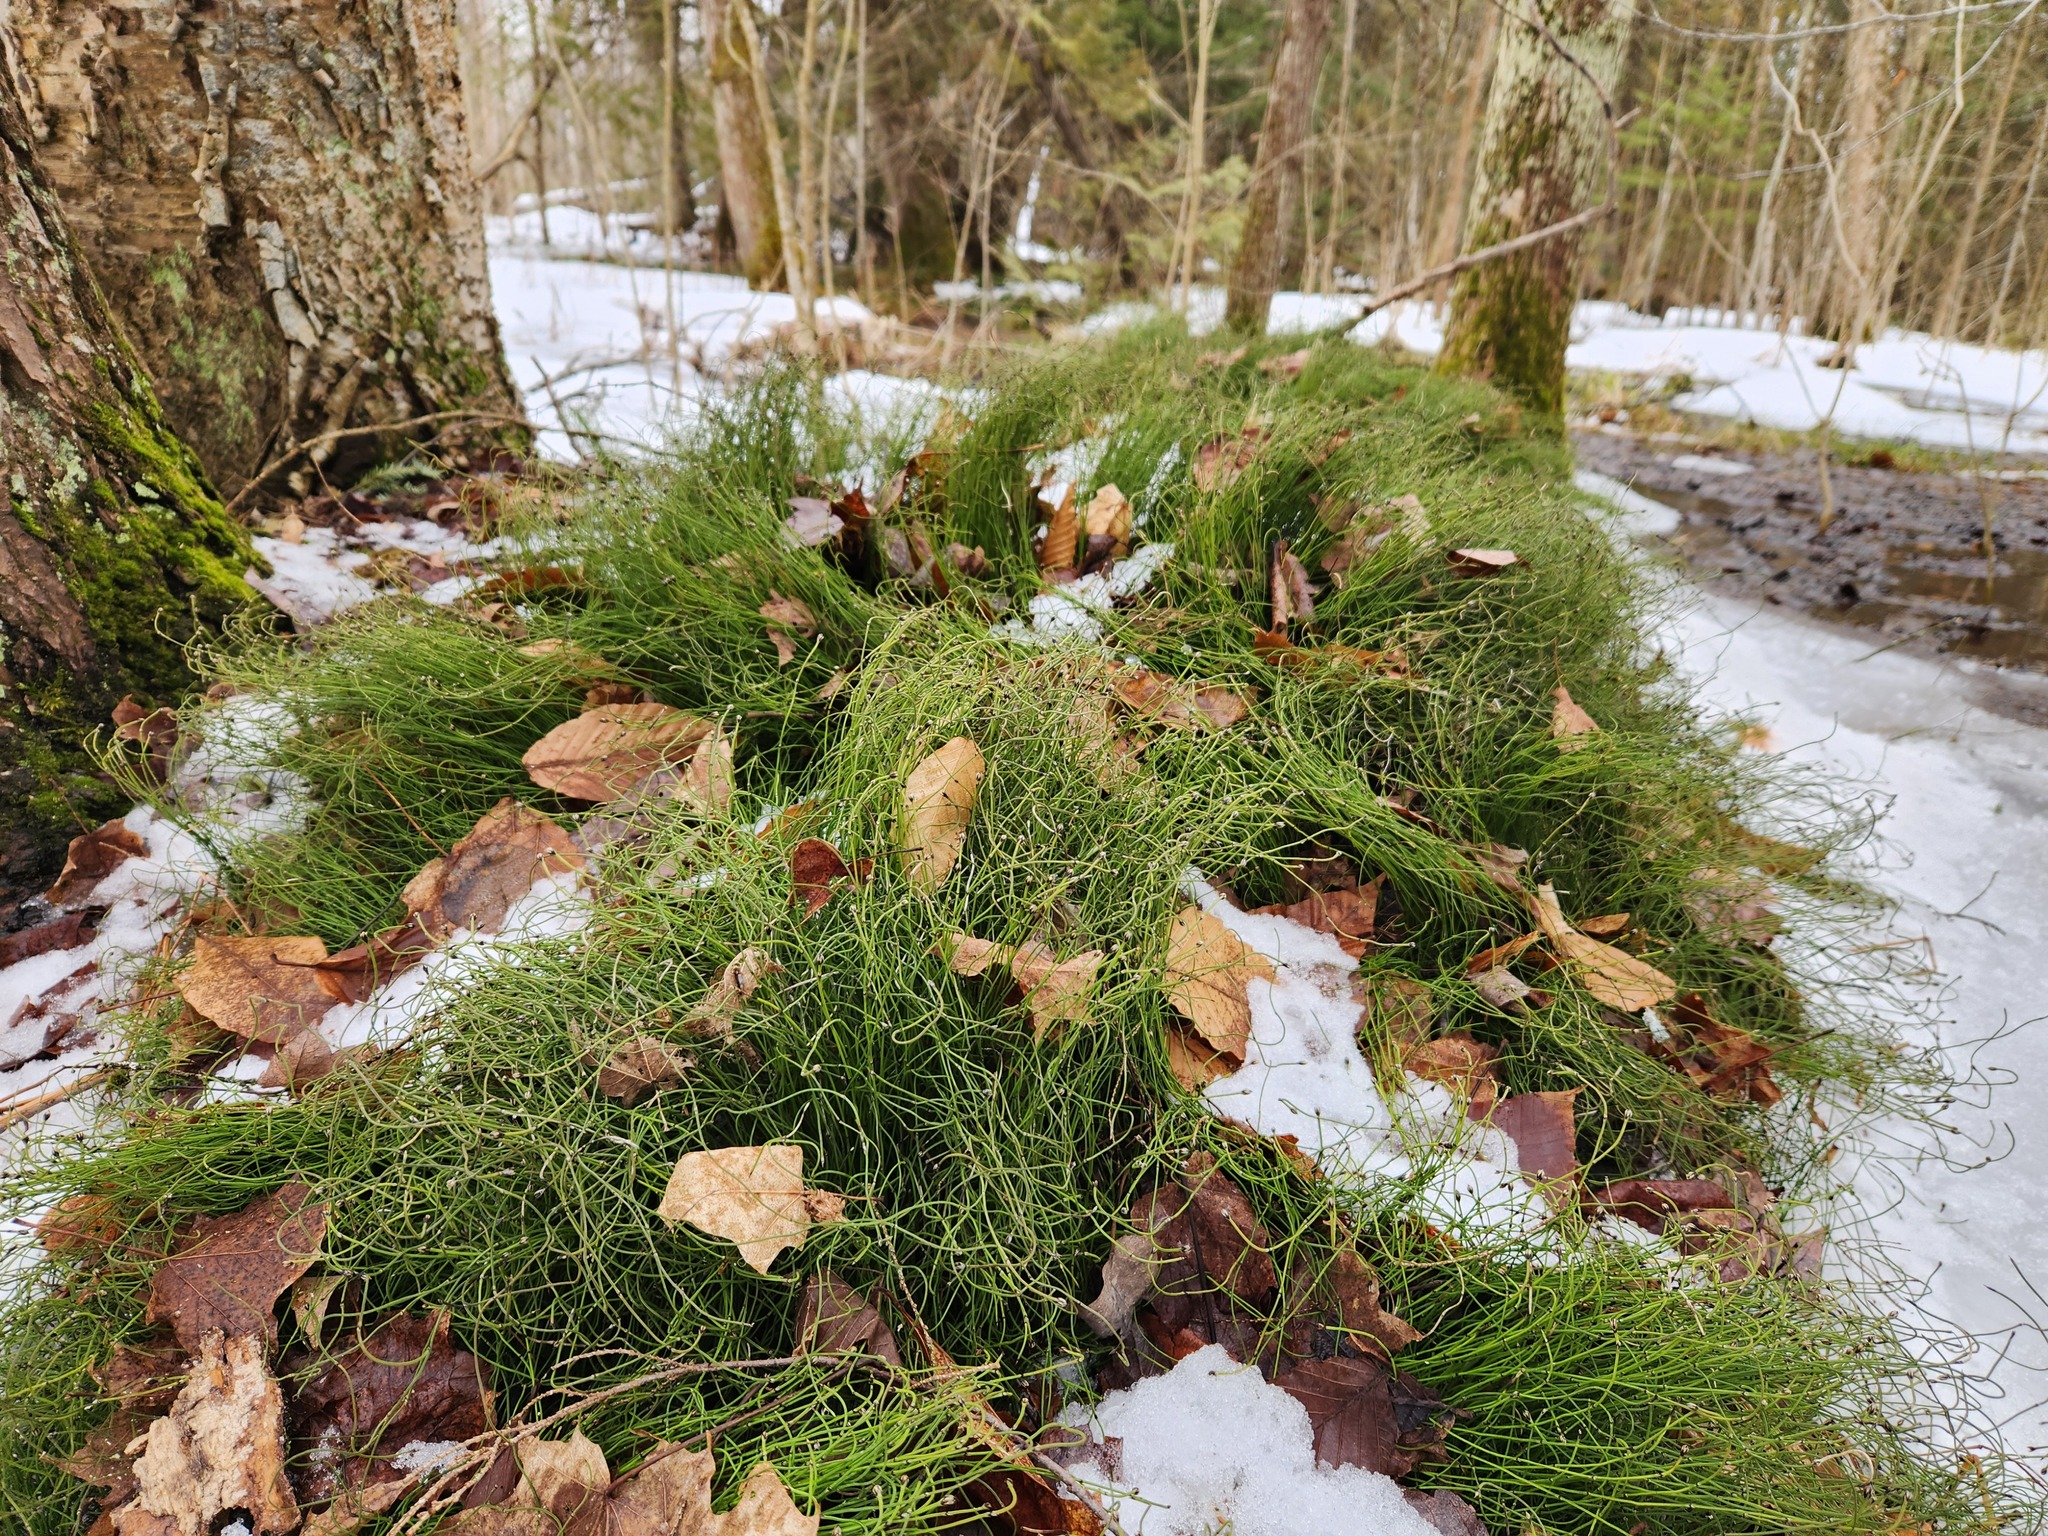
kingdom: Plantae
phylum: Tracheophyta
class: Polypodiopsida
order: Equisetales
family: Equisetaceae
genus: Equisetum
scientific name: Equisetum scirpoides
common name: Delicate horsetail
